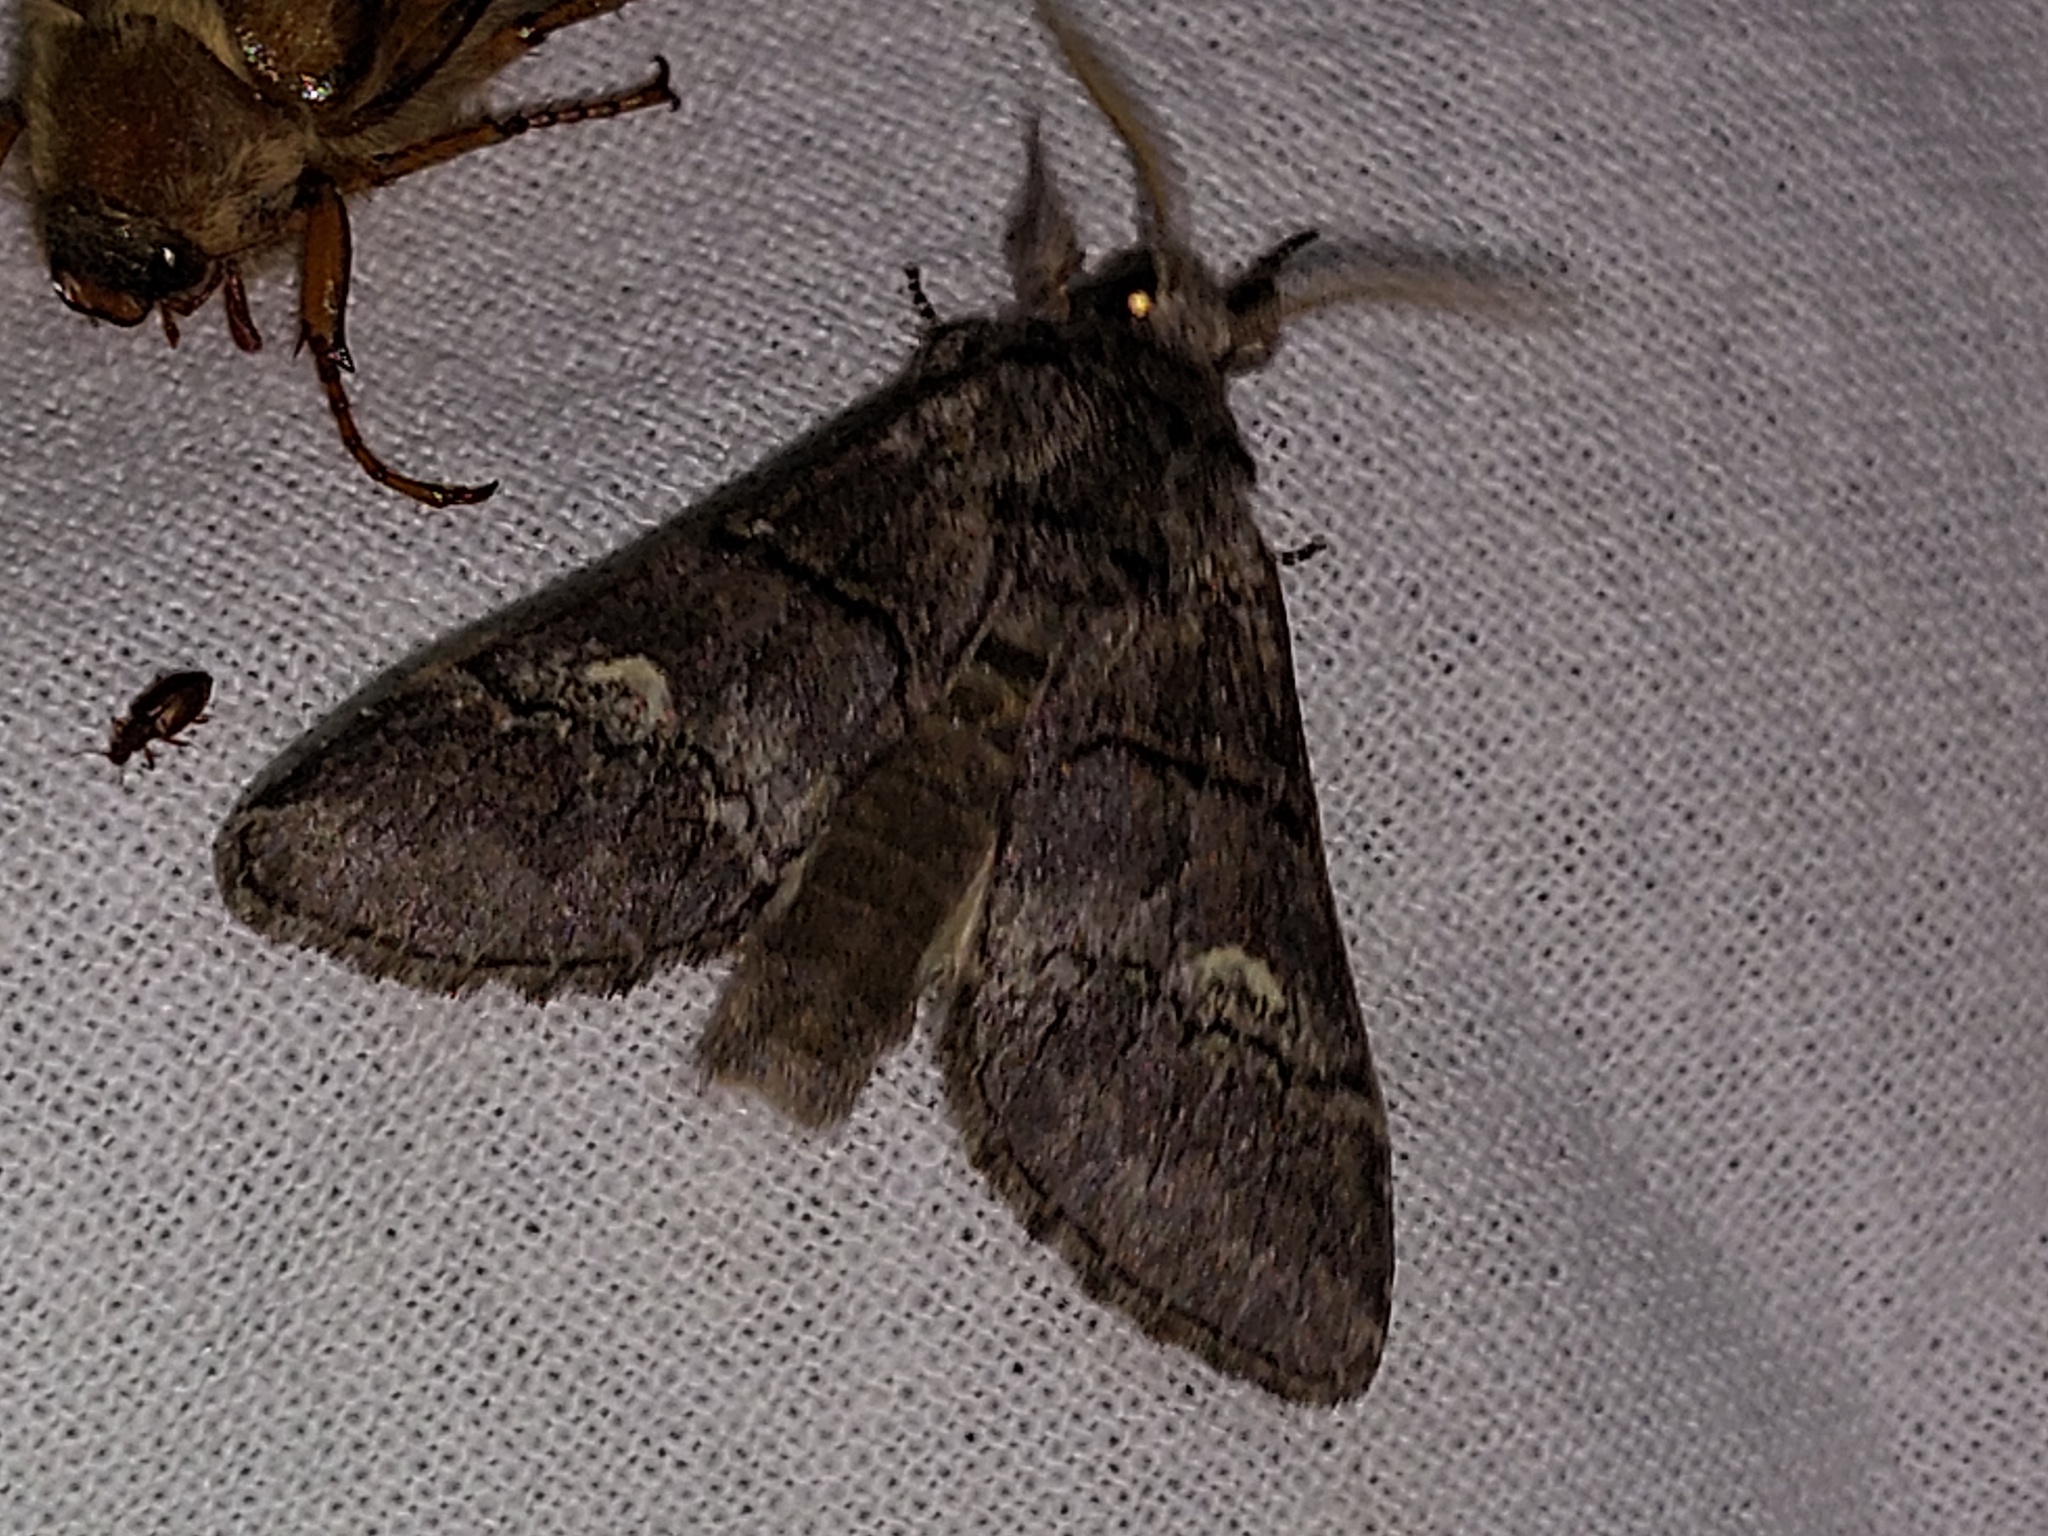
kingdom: Animalia
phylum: Arthropoda
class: Insecta
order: Lepidoptera
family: Notodontidae
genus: Drymonia
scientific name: Drymonia querna
